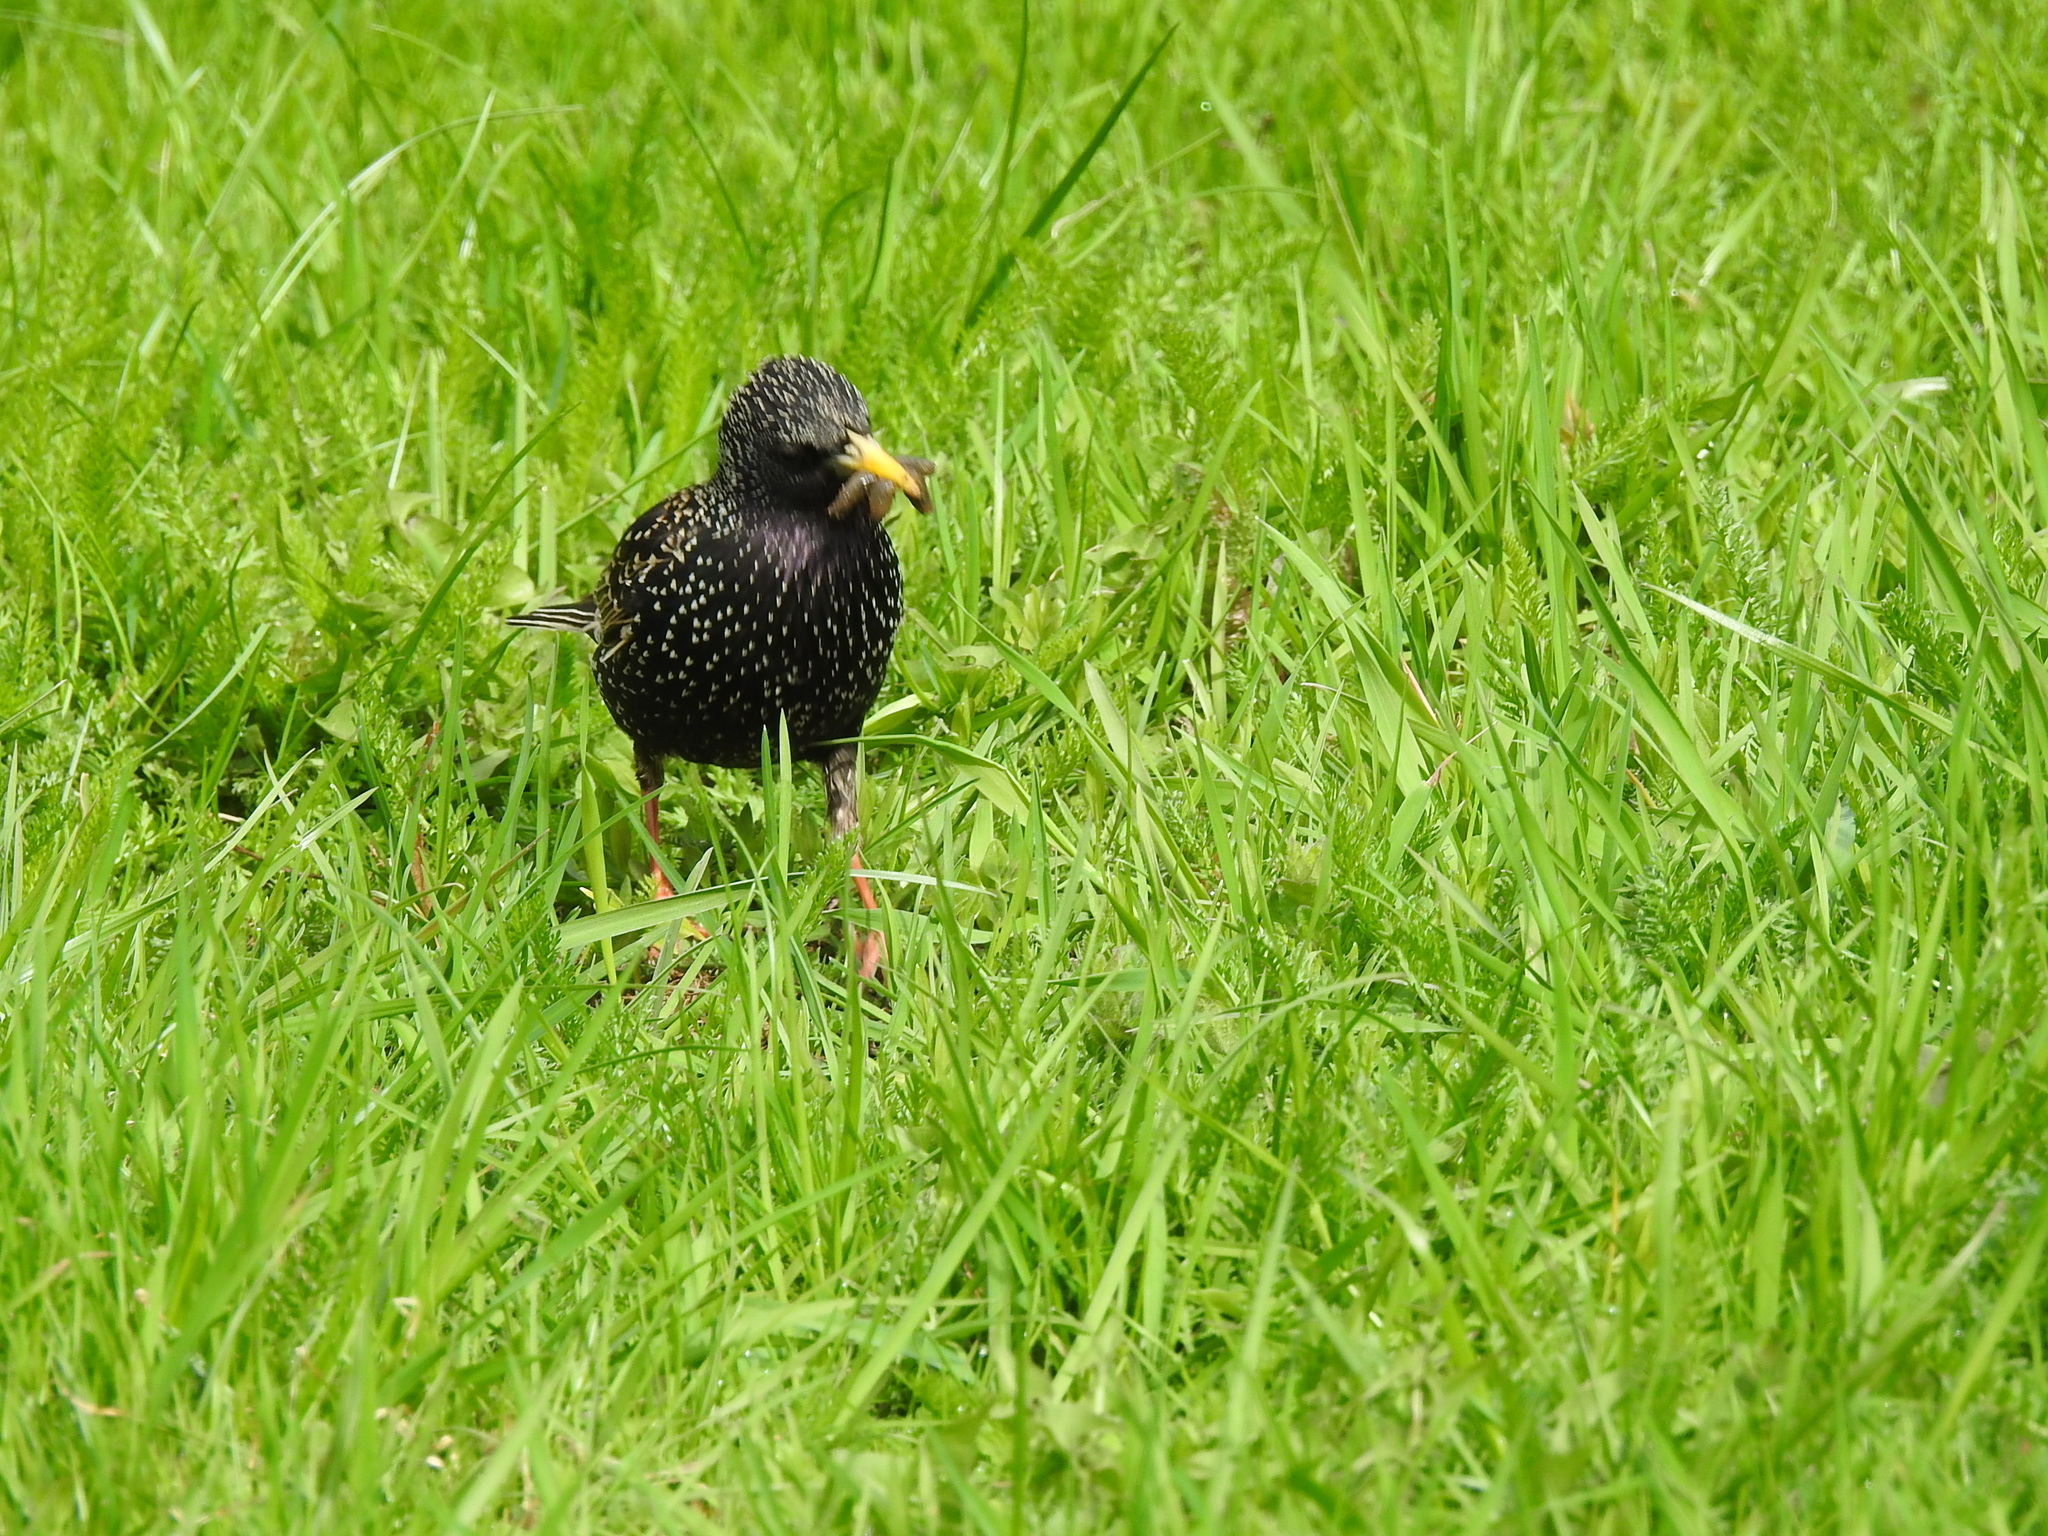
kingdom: Animalia
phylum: Chordata
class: Aves
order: Passeriformes
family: Sturnidae
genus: Sturnus
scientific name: Sturnus vulgaris
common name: Common starling
